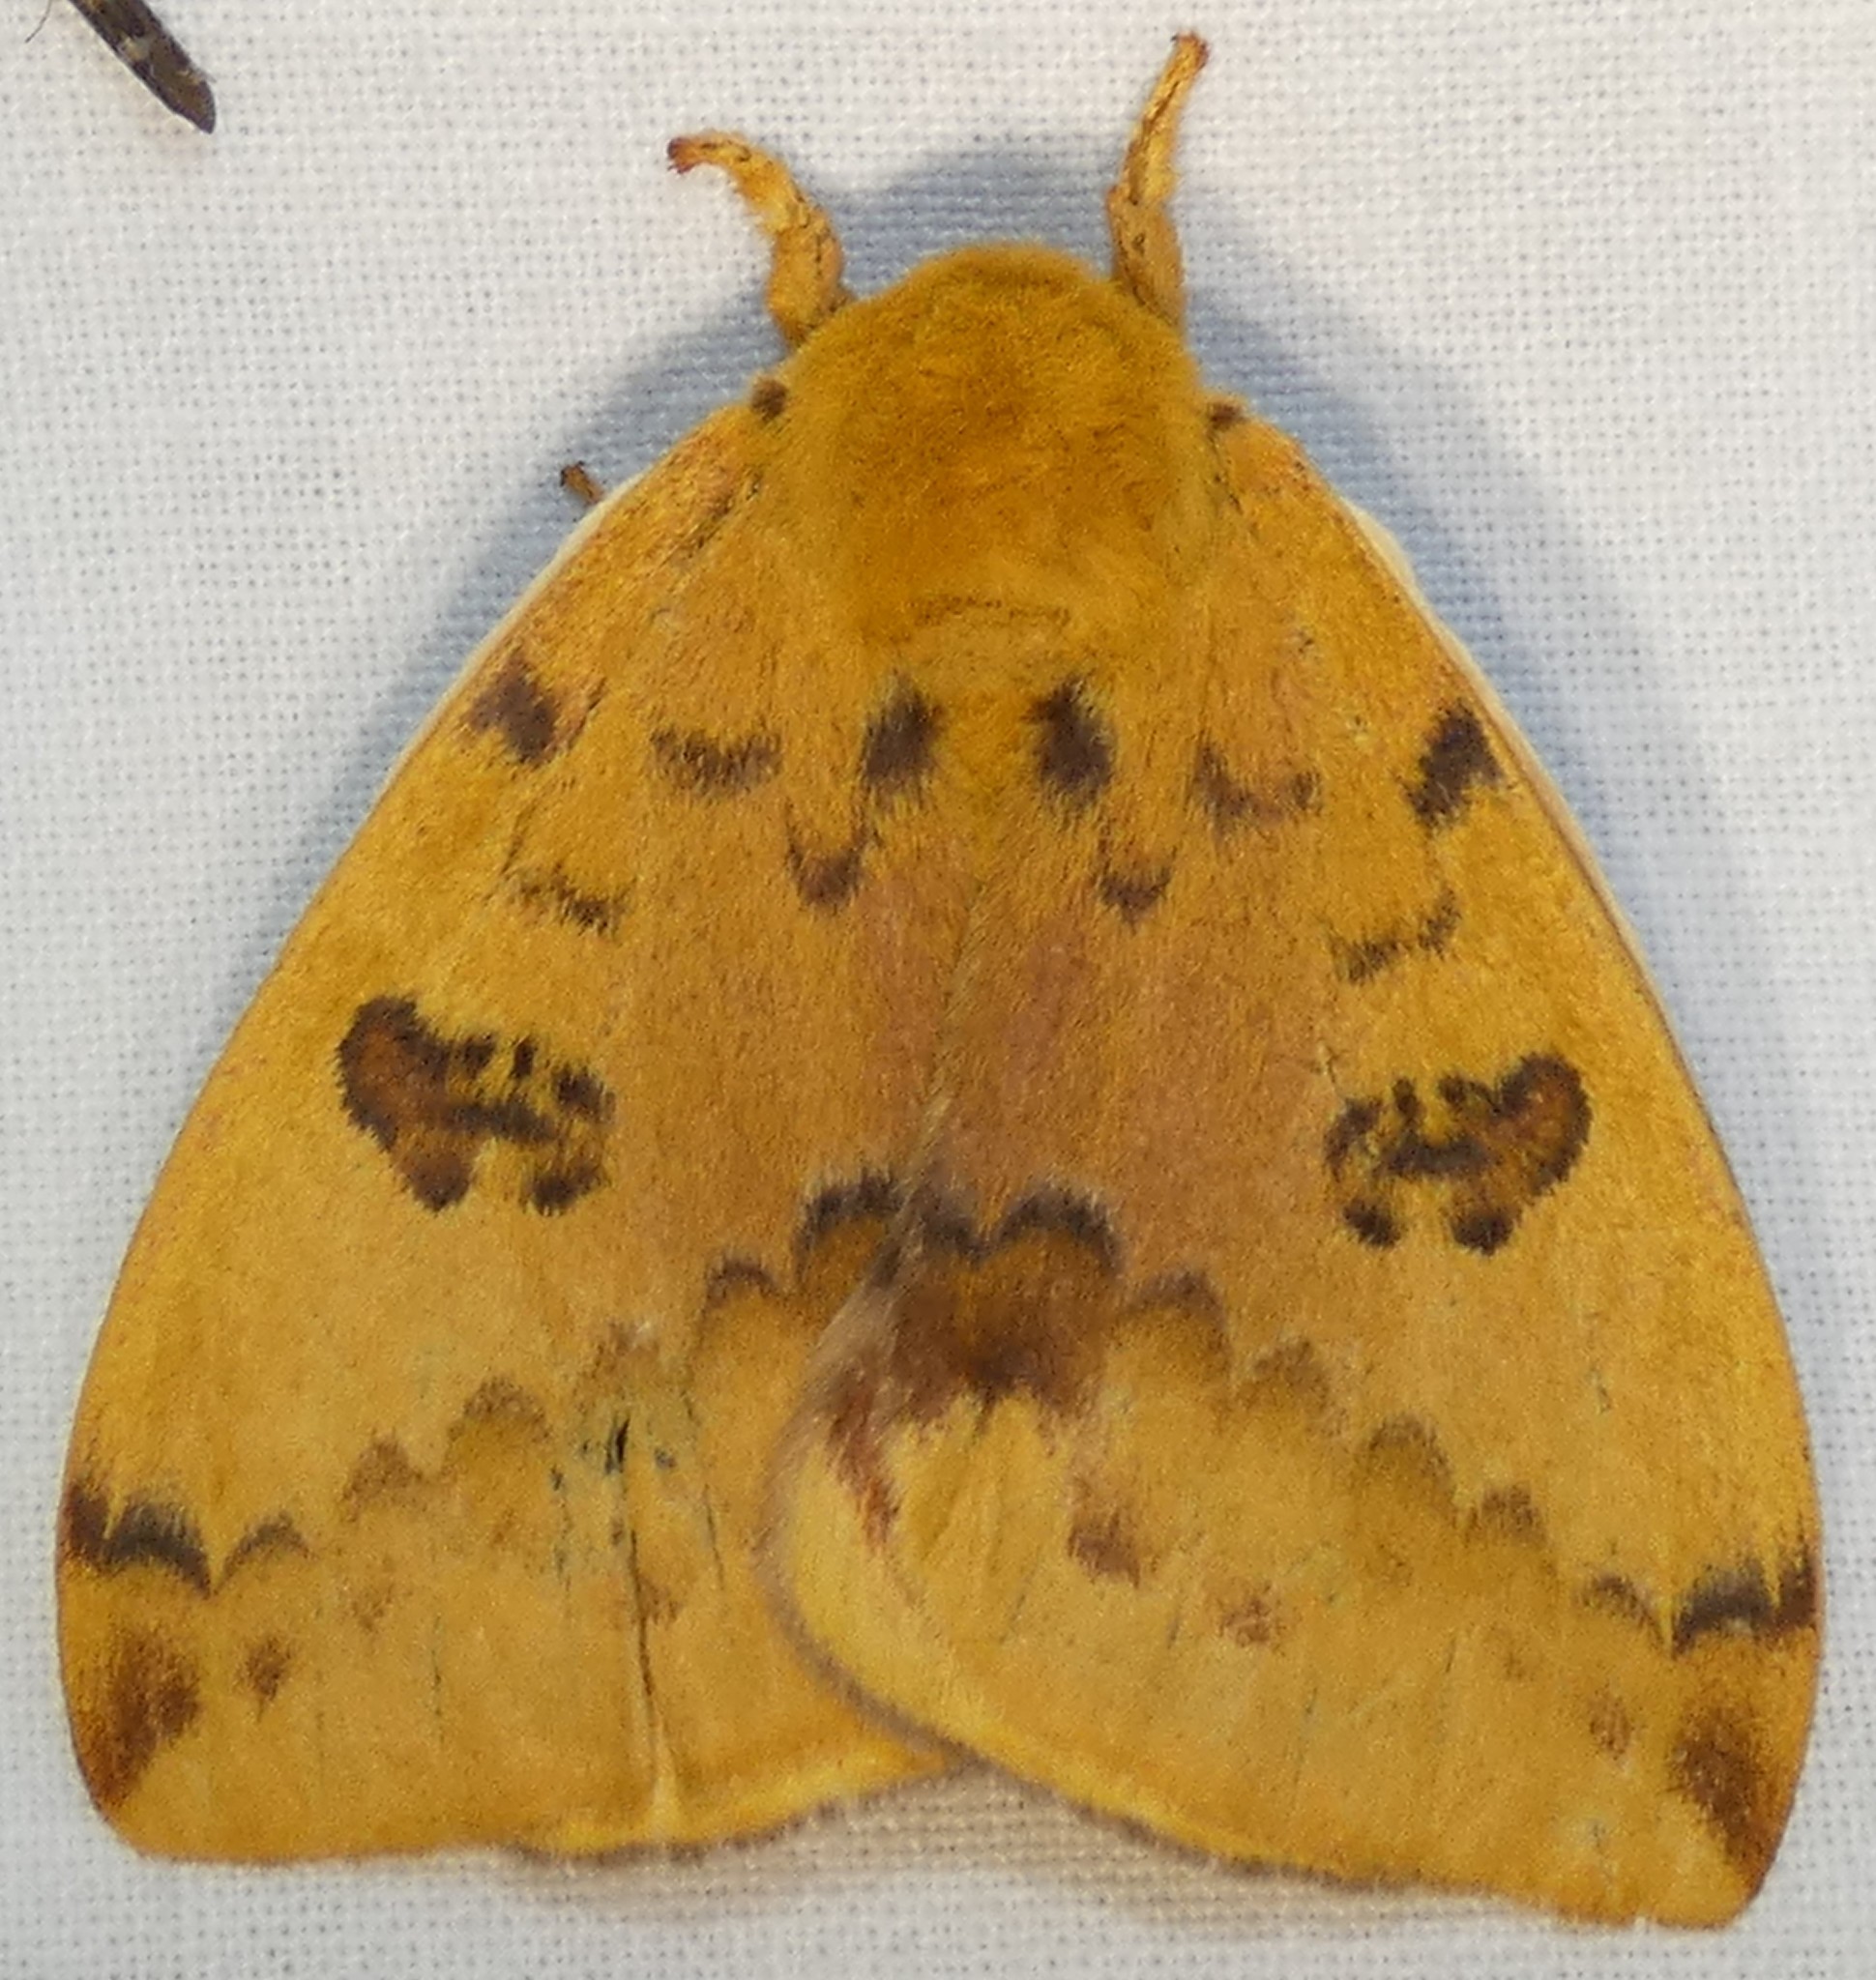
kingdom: Animalia
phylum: Arthropoda
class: Insecta
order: Lepidoptera
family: Saturniidae
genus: Automeris
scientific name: Automeris io
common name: Io moth
